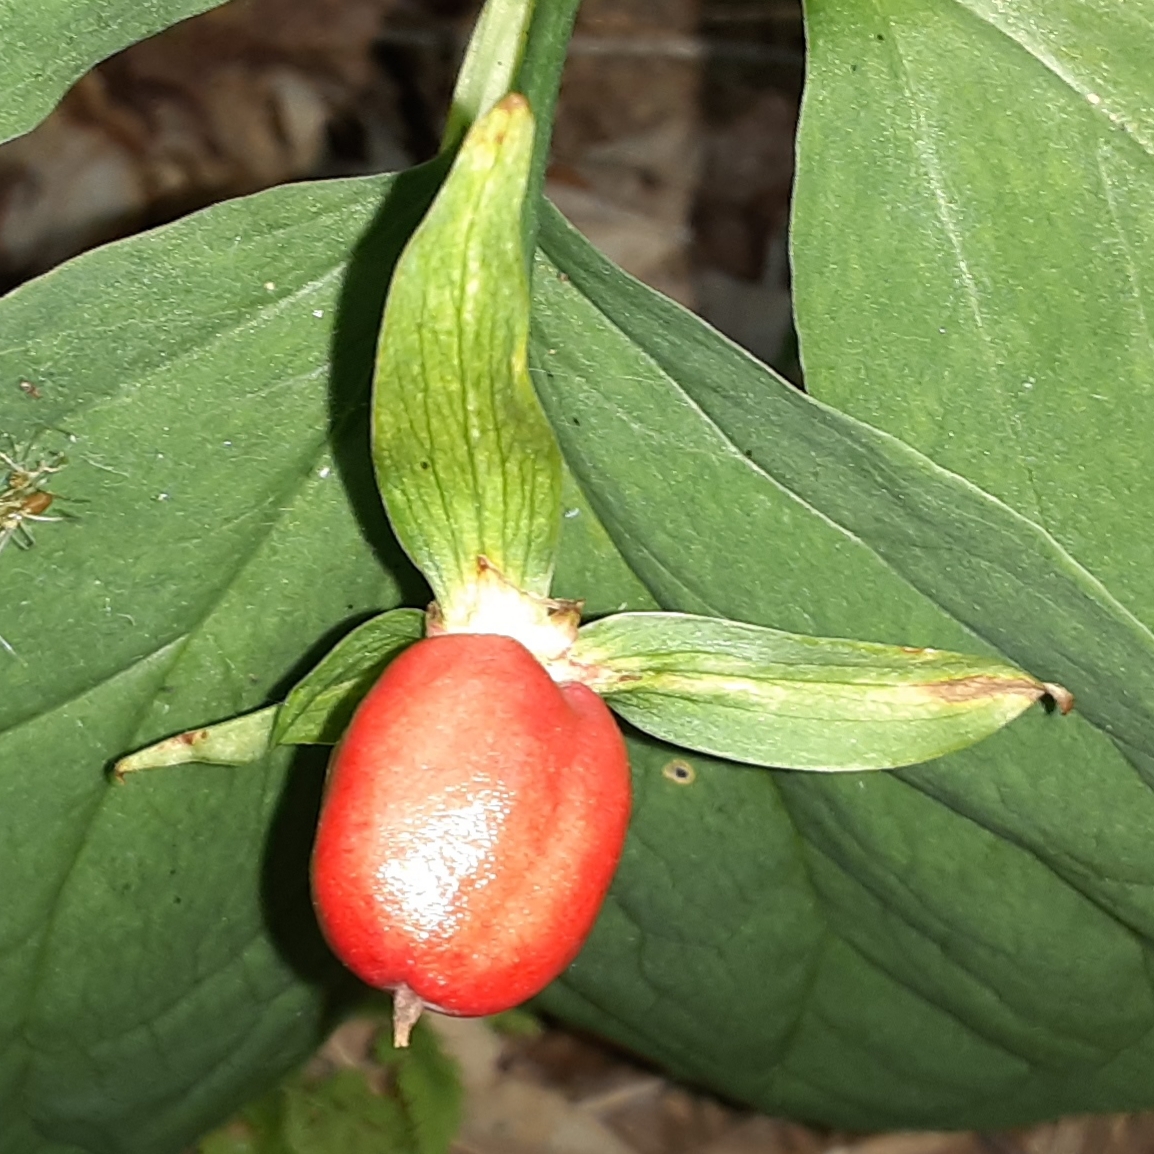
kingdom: Plantae
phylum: Tracheophyta
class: Liliopsida
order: Liliales
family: Melanthiaceae
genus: Trillium
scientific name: Trillium undulatum
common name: Paint trillium
